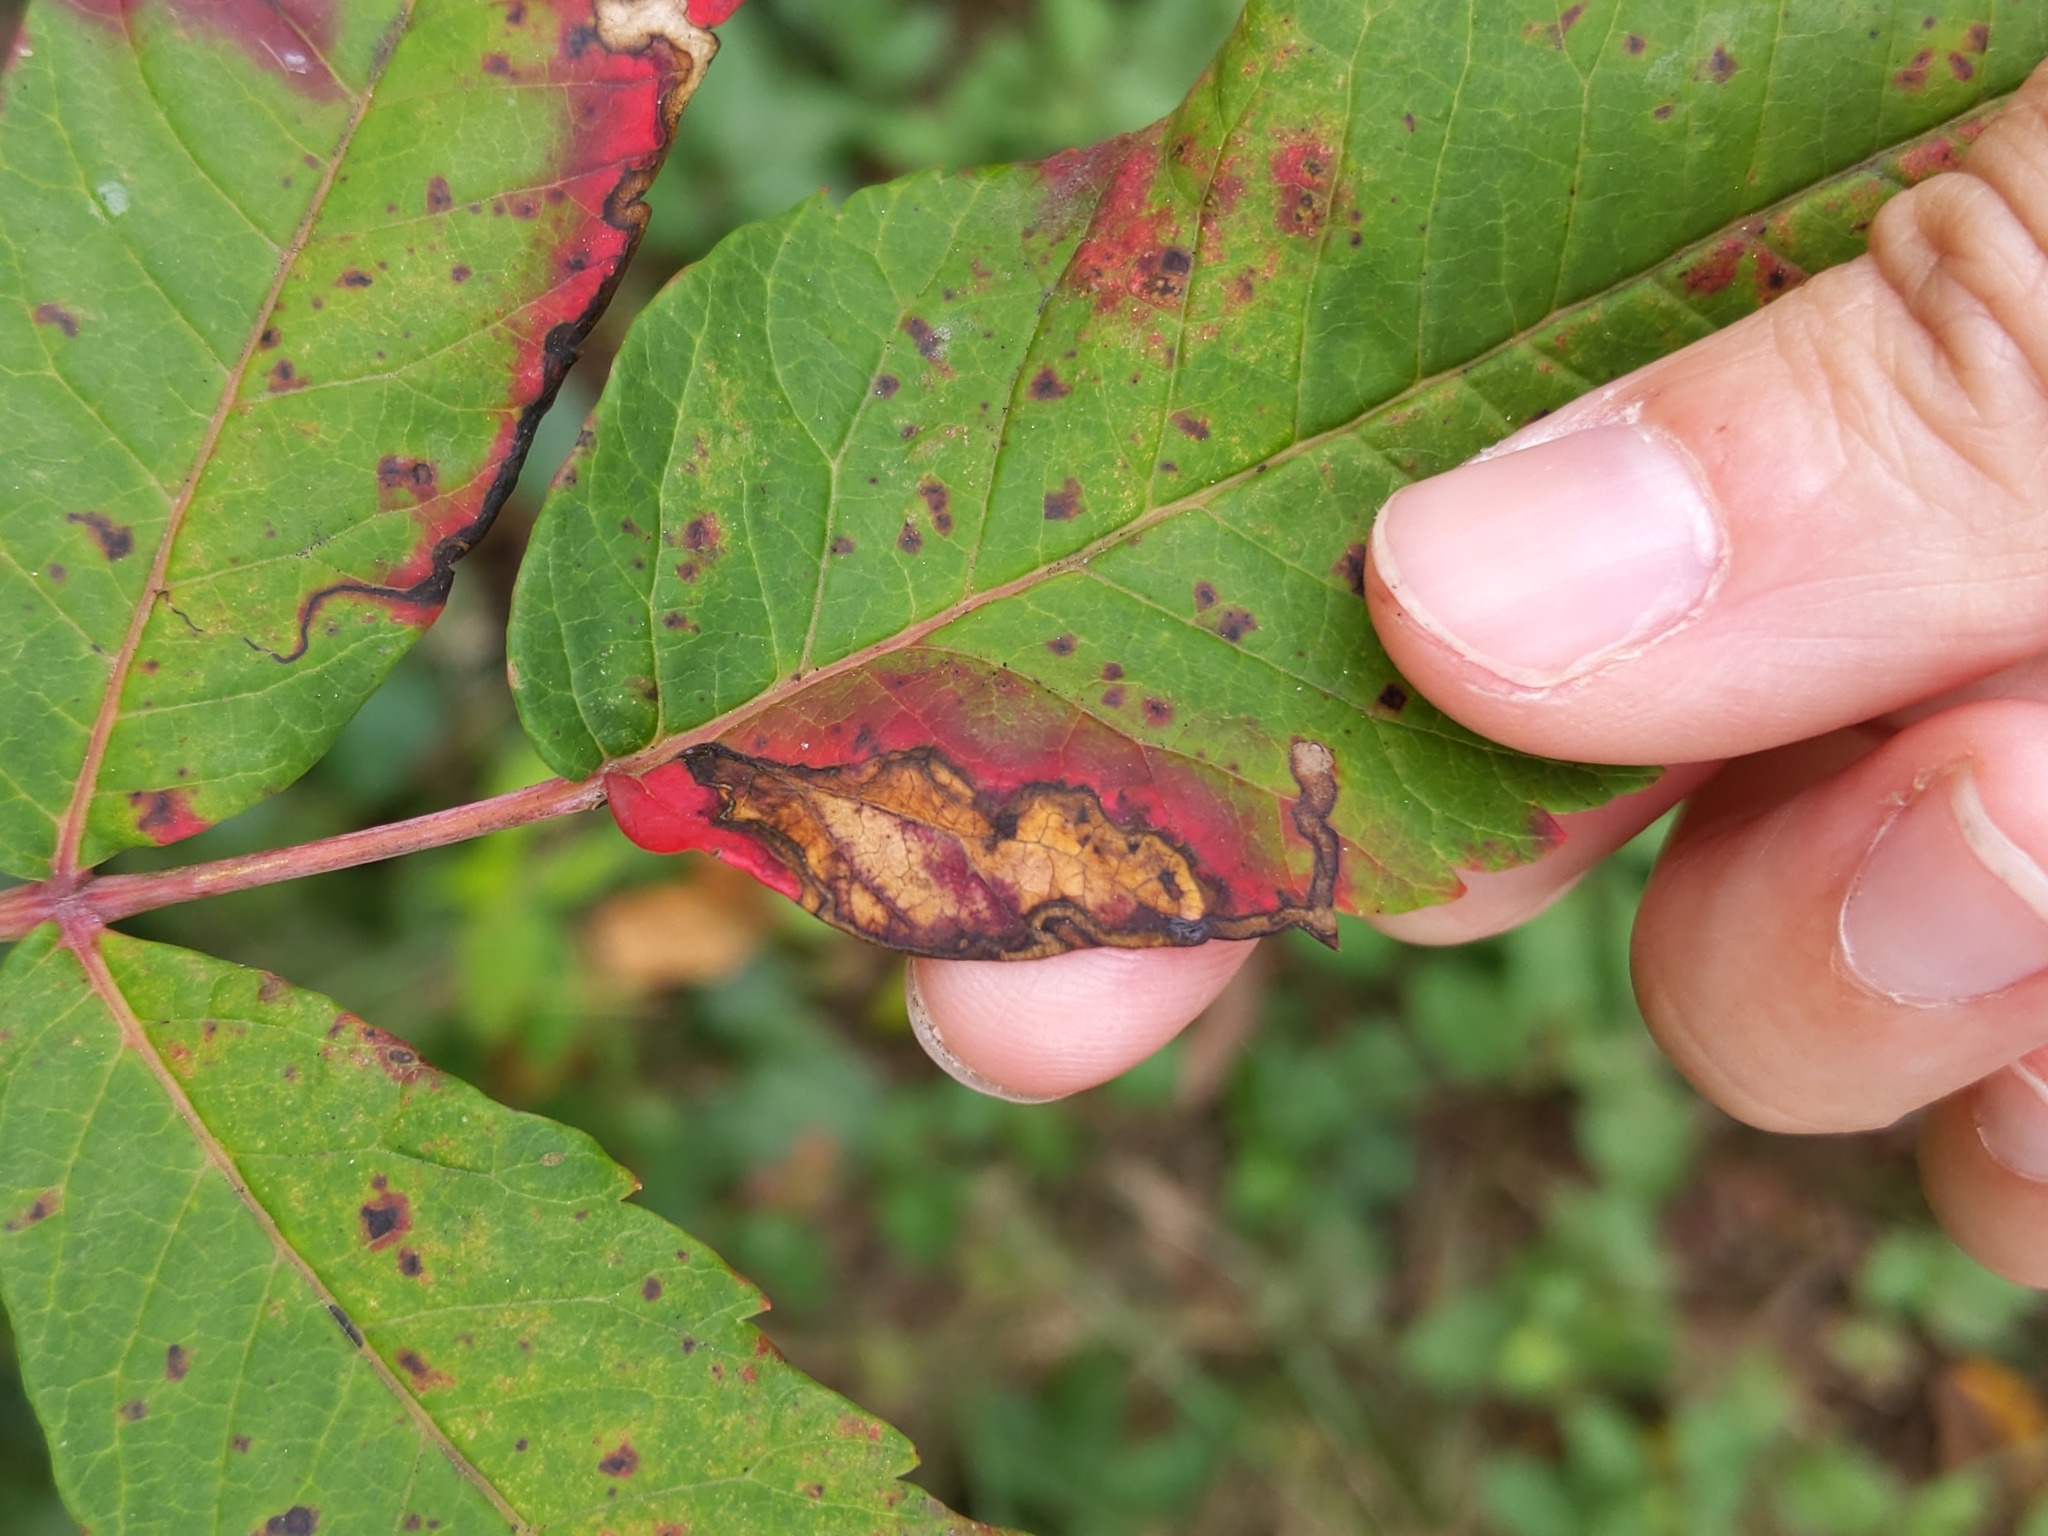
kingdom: Animalia
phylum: Arthropoda
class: Insecta
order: Lepidoptera
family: Nepticulidae
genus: Stigmella
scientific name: Stigmella intermedia
